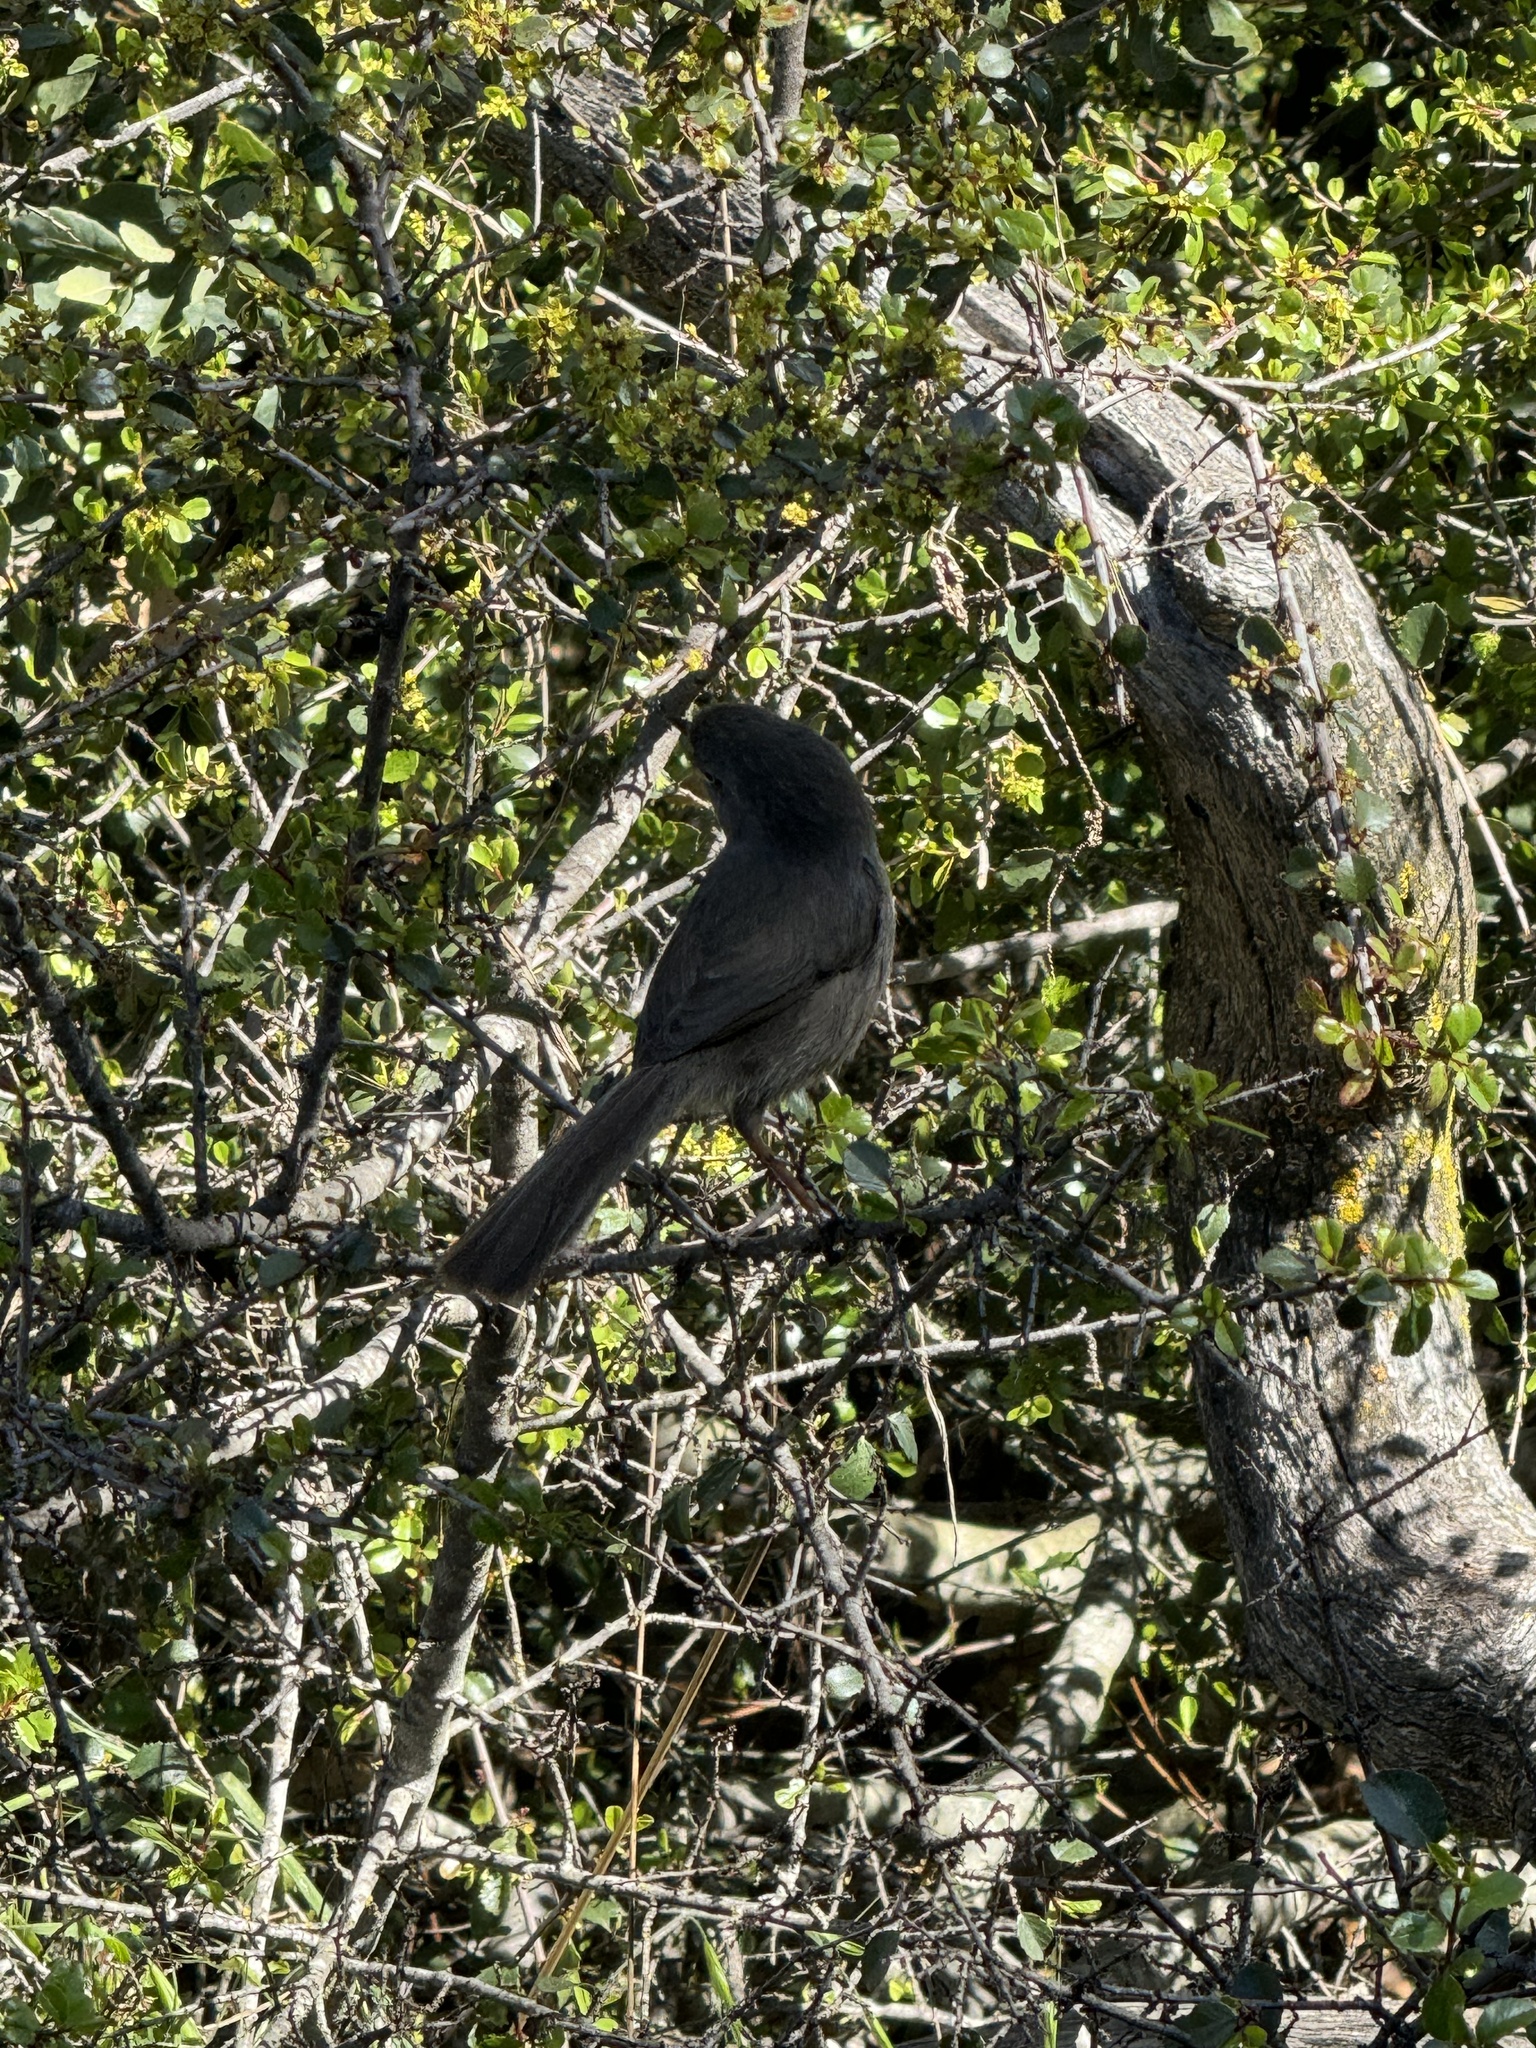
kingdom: Animalia
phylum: Chordata
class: Aves
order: Passeriformes
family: Sylviidae
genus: Chamaea
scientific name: Chamaea fasciata
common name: Wrentit
